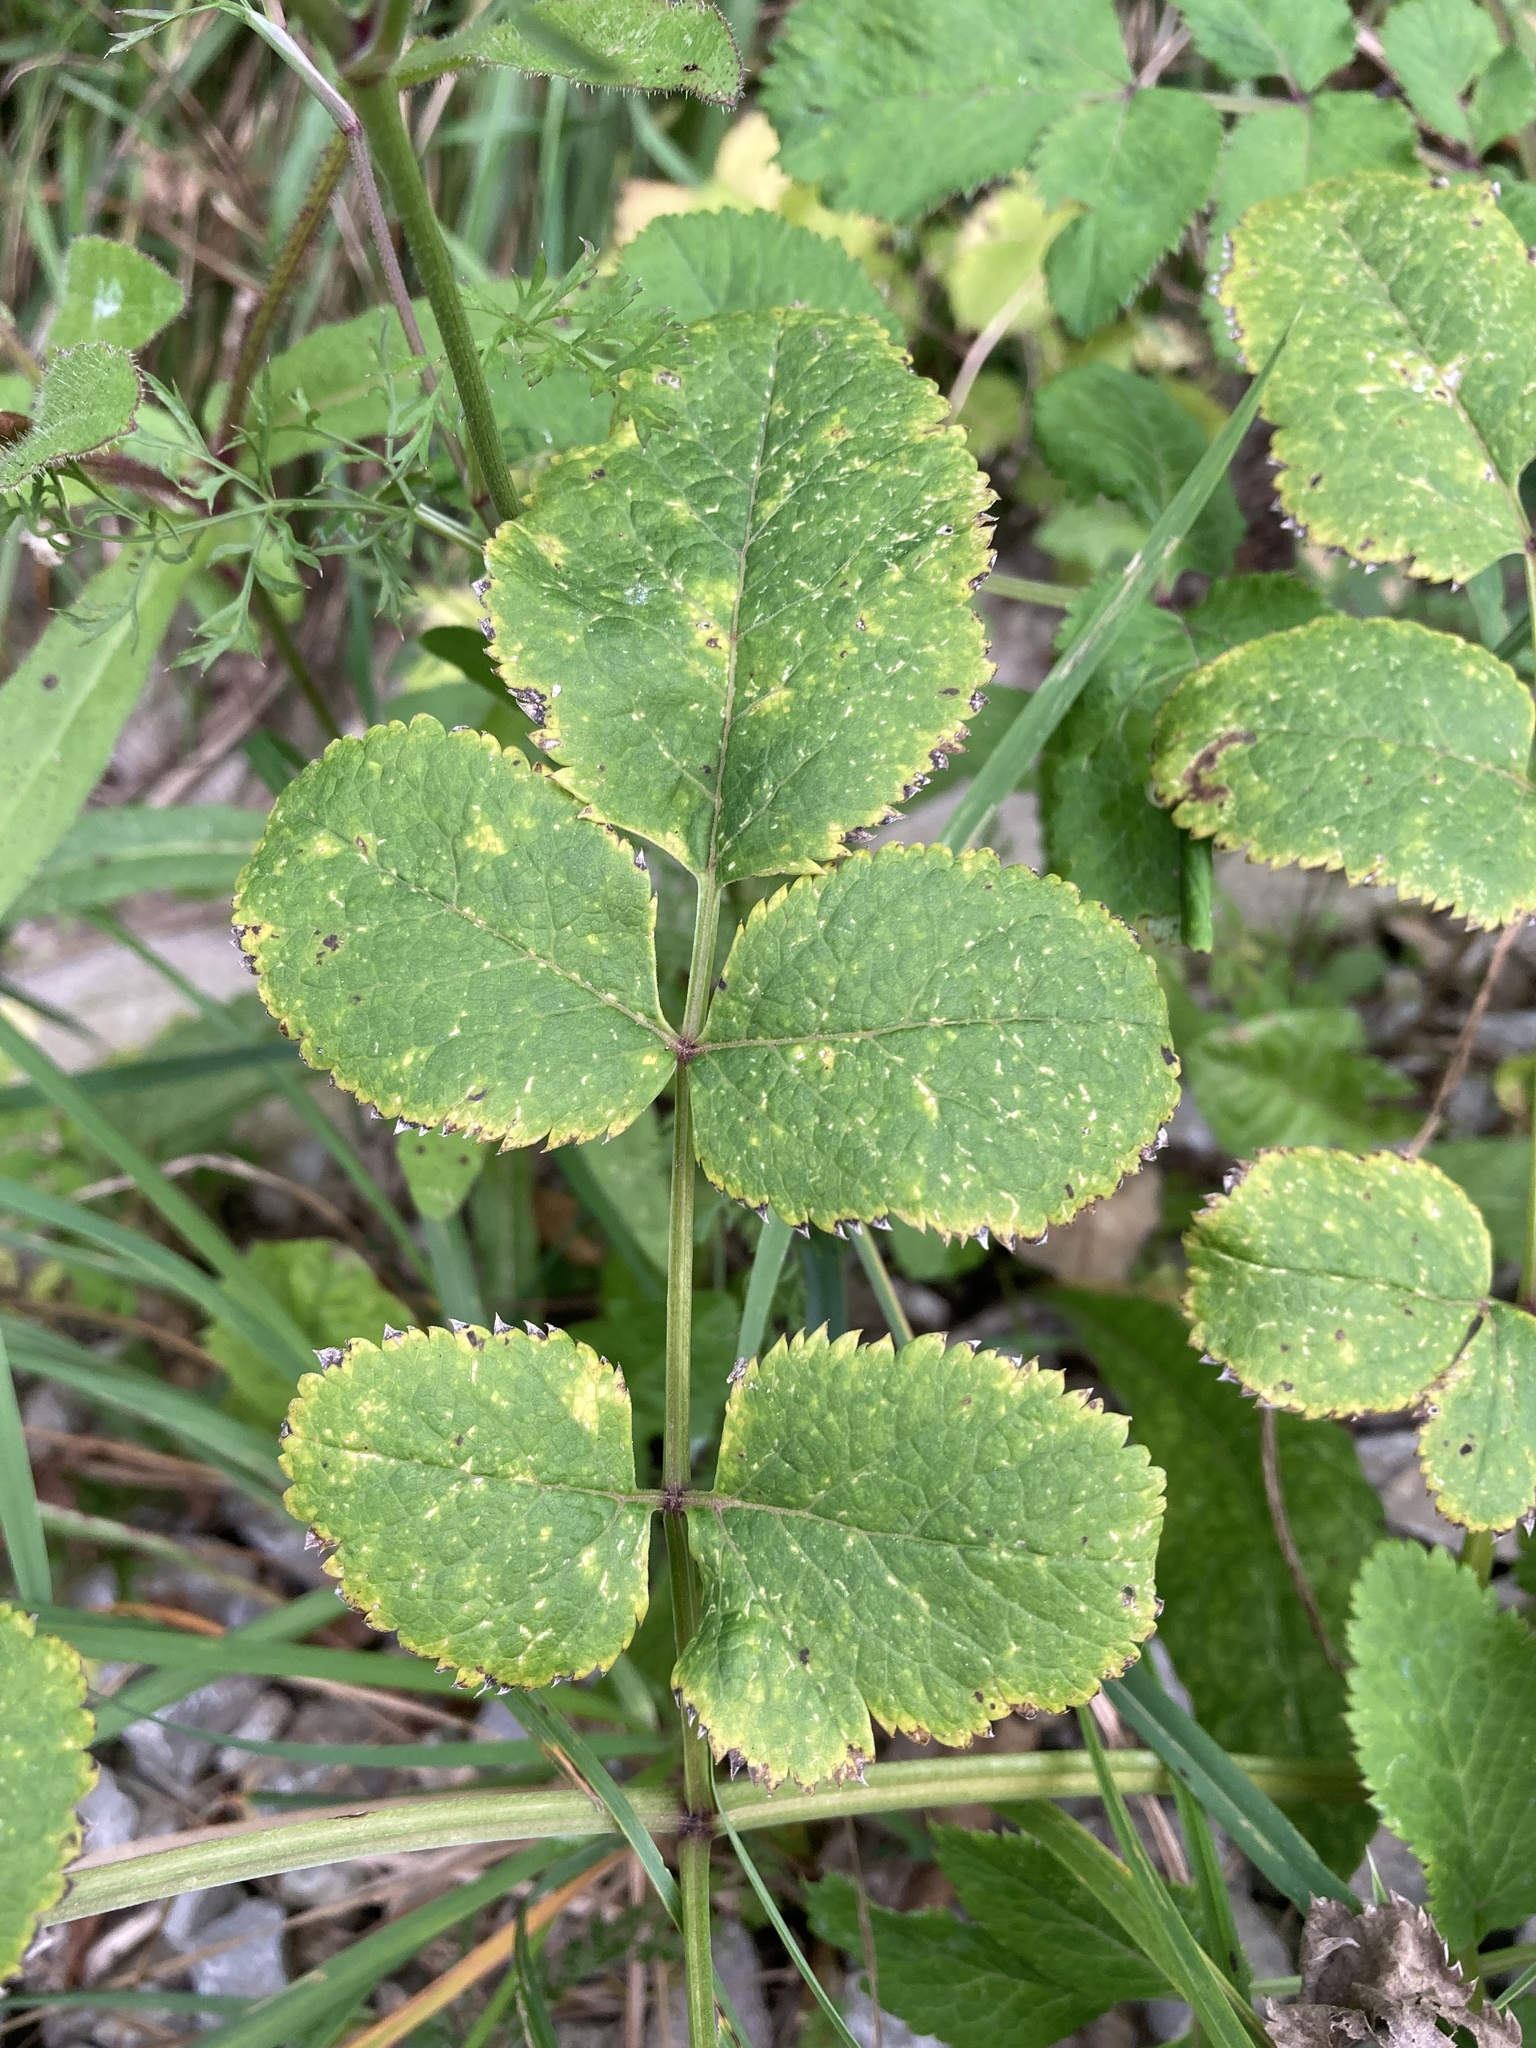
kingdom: Plantae
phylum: Tracheophyta
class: Magnoliopsida
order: Apiales
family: Apiaceae
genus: Angelica
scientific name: Angelica sylvestris
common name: Wild angelica
